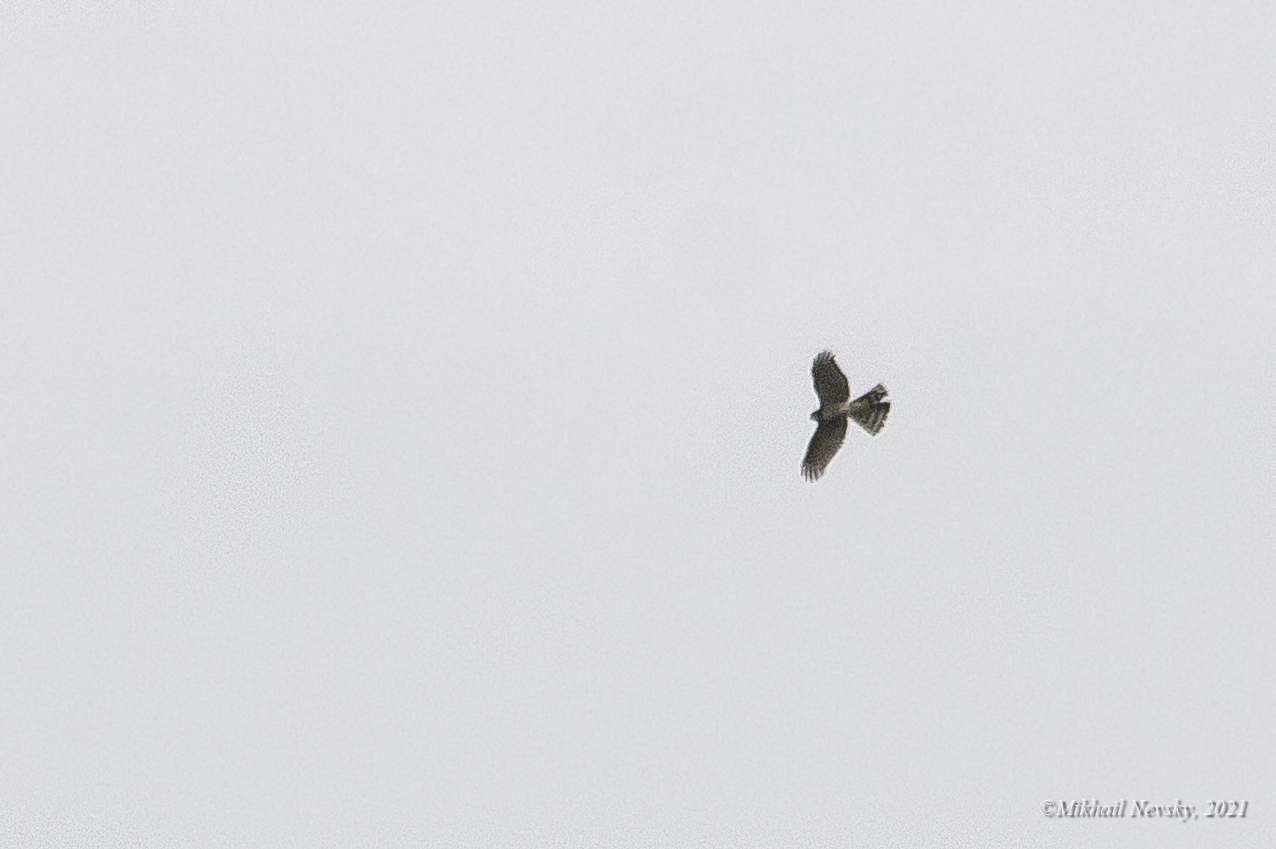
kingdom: Animalia
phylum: Chordata
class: Aves
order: Accipitriformes
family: Accipitridae
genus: Circus
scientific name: Circus cyaneus
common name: Hen harrier
